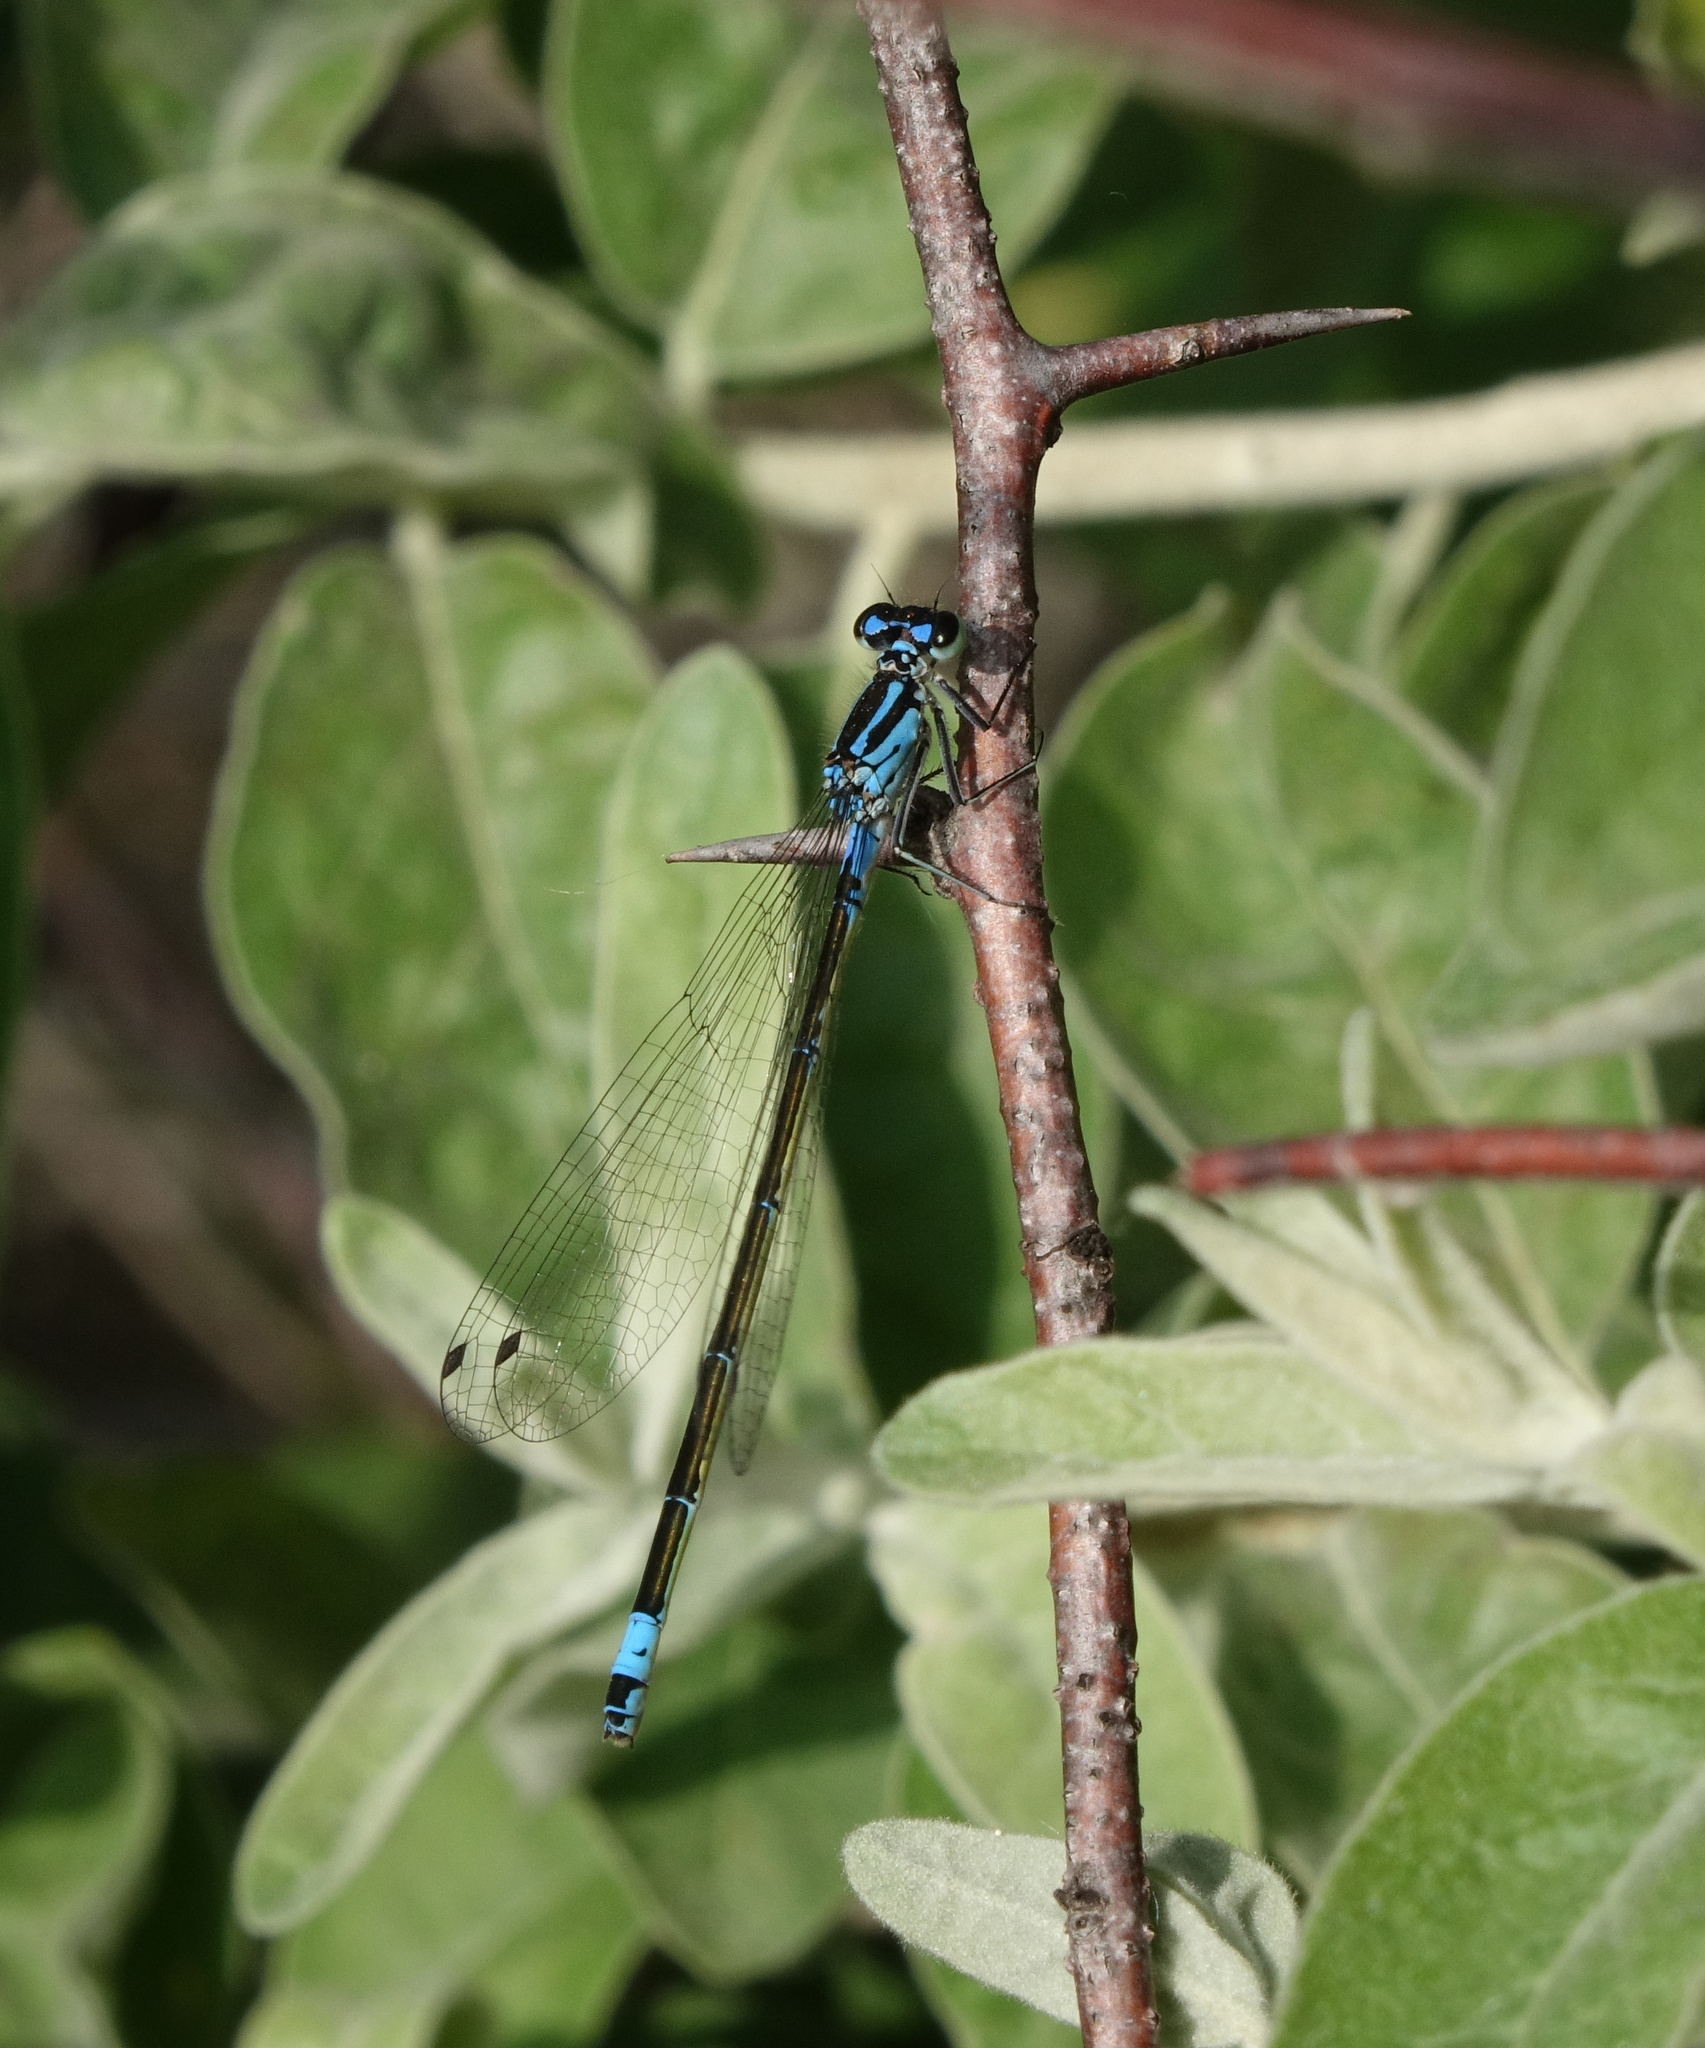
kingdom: Animalia
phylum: Arthropoda
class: Insecta
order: Odonata
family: Coenagrionidae
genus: Coenagrion
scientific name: Coenagrion pulchellum
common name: Variable bluet
